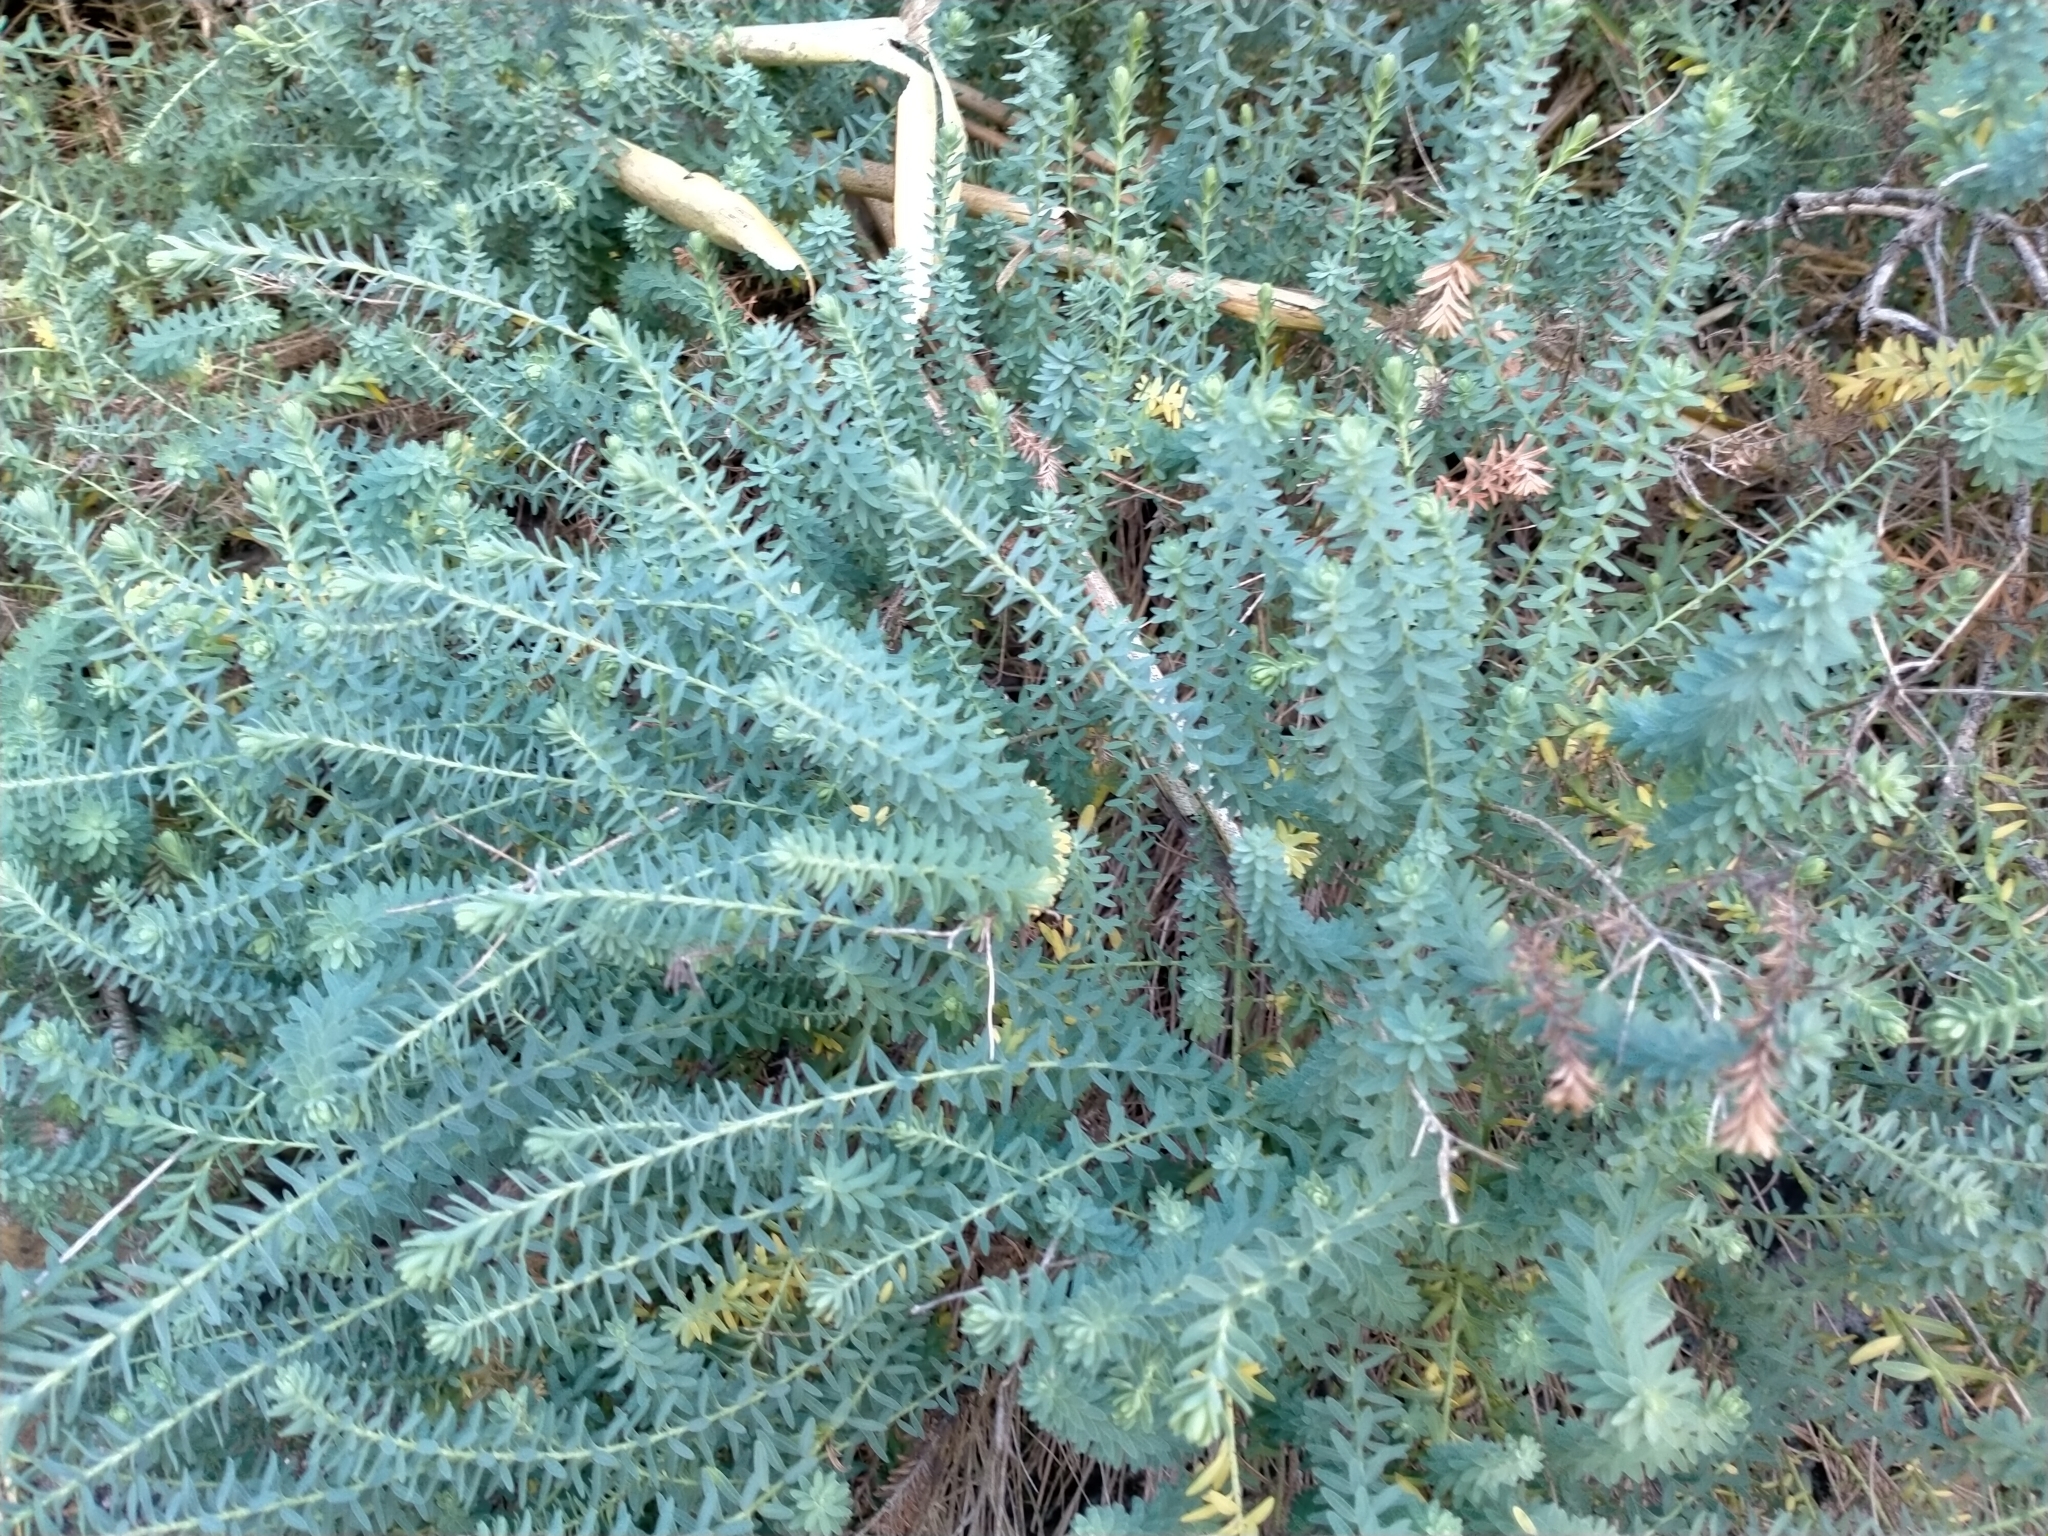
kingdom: Plantae
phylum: Tracheophyta
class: Magnoliopsida
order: Malpighiales
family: Linaceae
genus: Linum
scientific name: Linum monogynum
